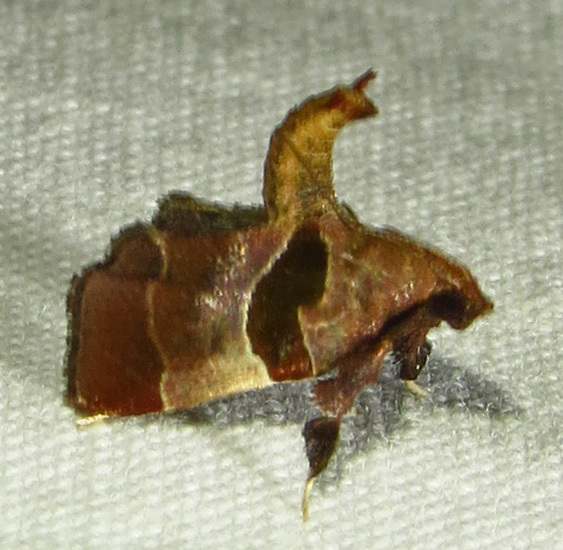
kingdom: Animalia
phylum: Arthropoda
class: Insecta
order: Lepidoptera
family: Pyralidae
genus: Tosale
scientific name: Tosale oviplagalis
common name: Dimorphic tosale moth
